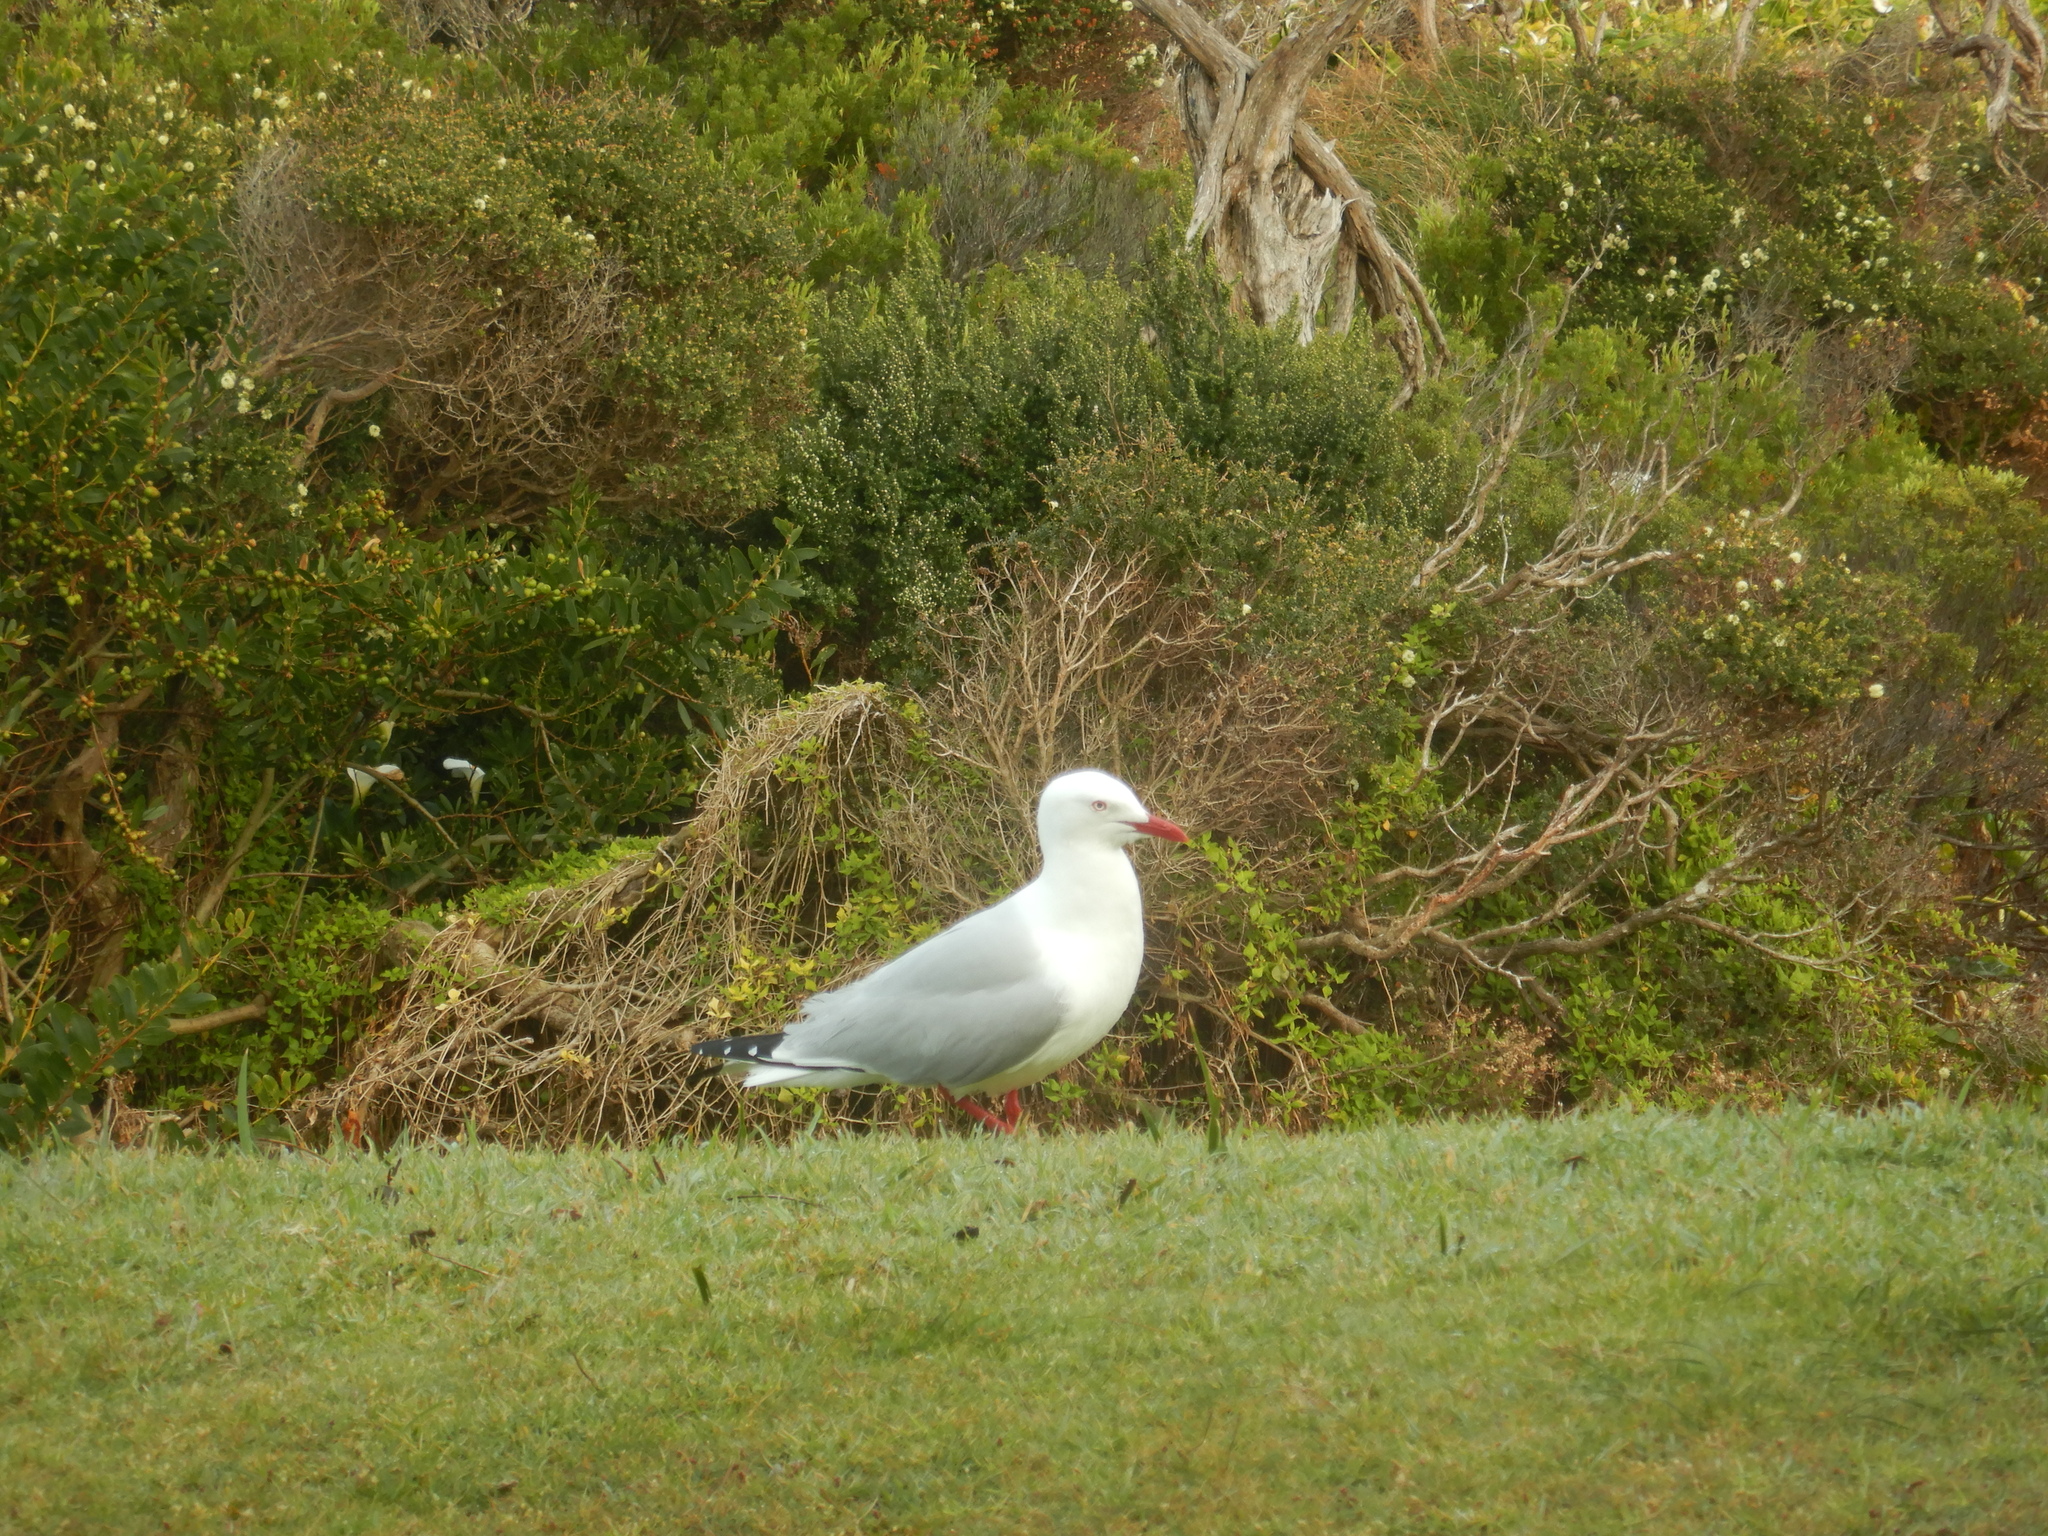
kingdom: Animalia
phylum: Chordata
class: Aves
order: Charadriiformes
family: Laridae
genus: Chroicocephalus
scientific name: Chroicocephalus novaehollandiae
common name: Silver gull
